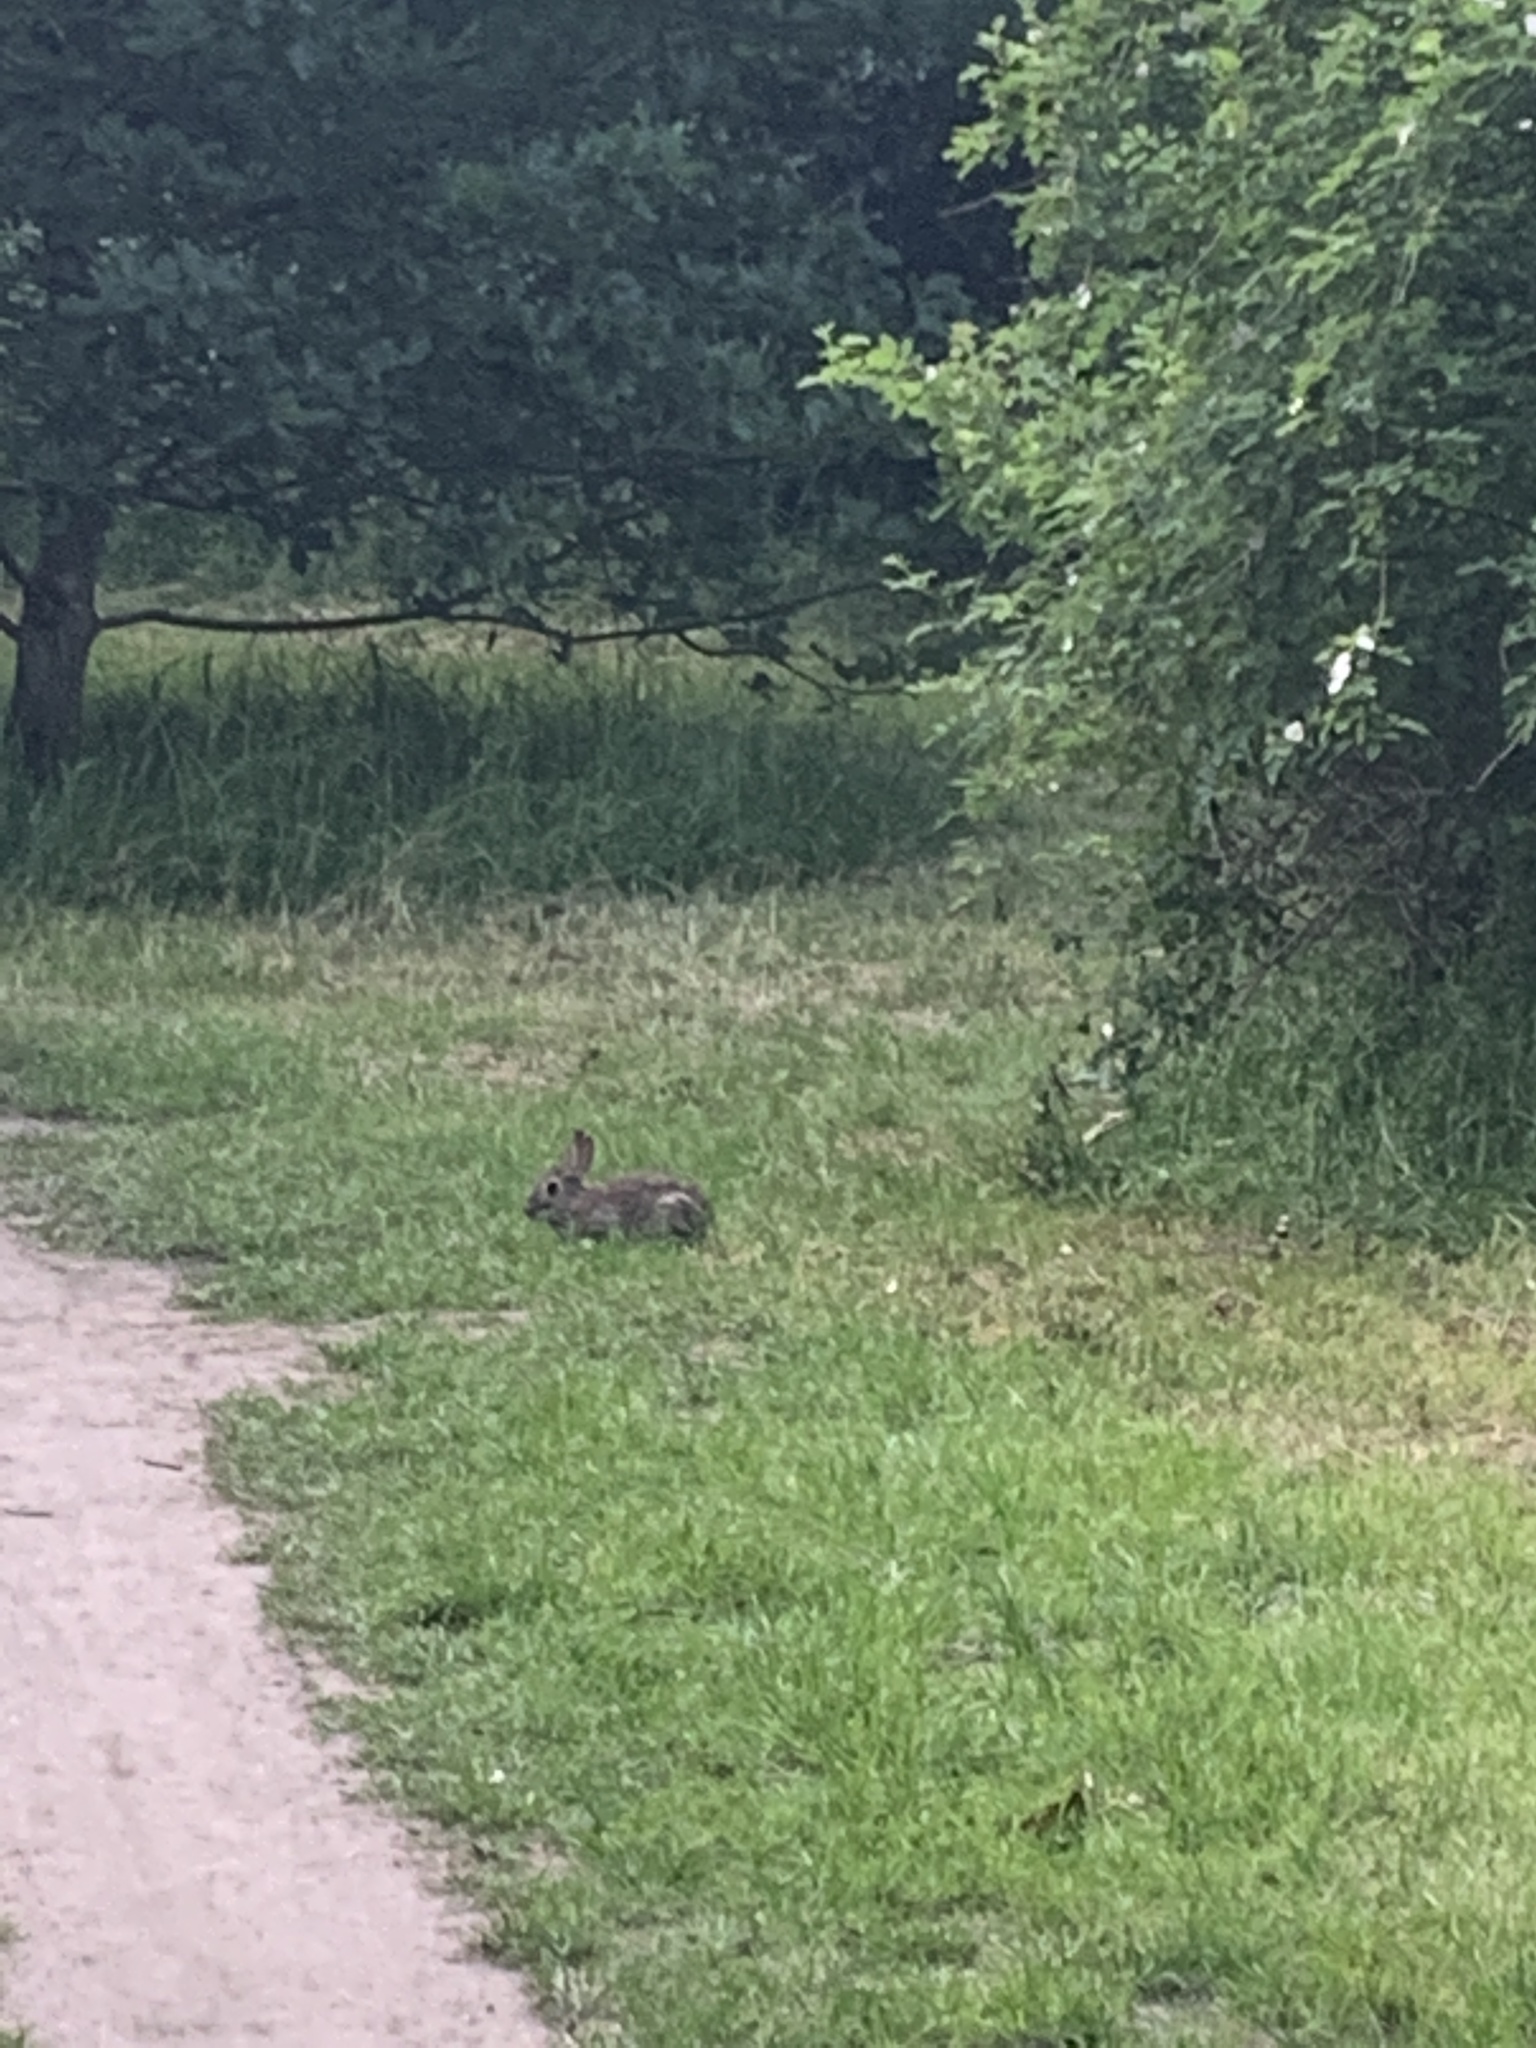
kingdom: Animalia
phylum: Chordata
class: Mammalia
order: Lagomorpha
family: Leporidae
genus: Oryctolagus
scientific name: Oryctolagus cuniculus
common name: European rabbit
